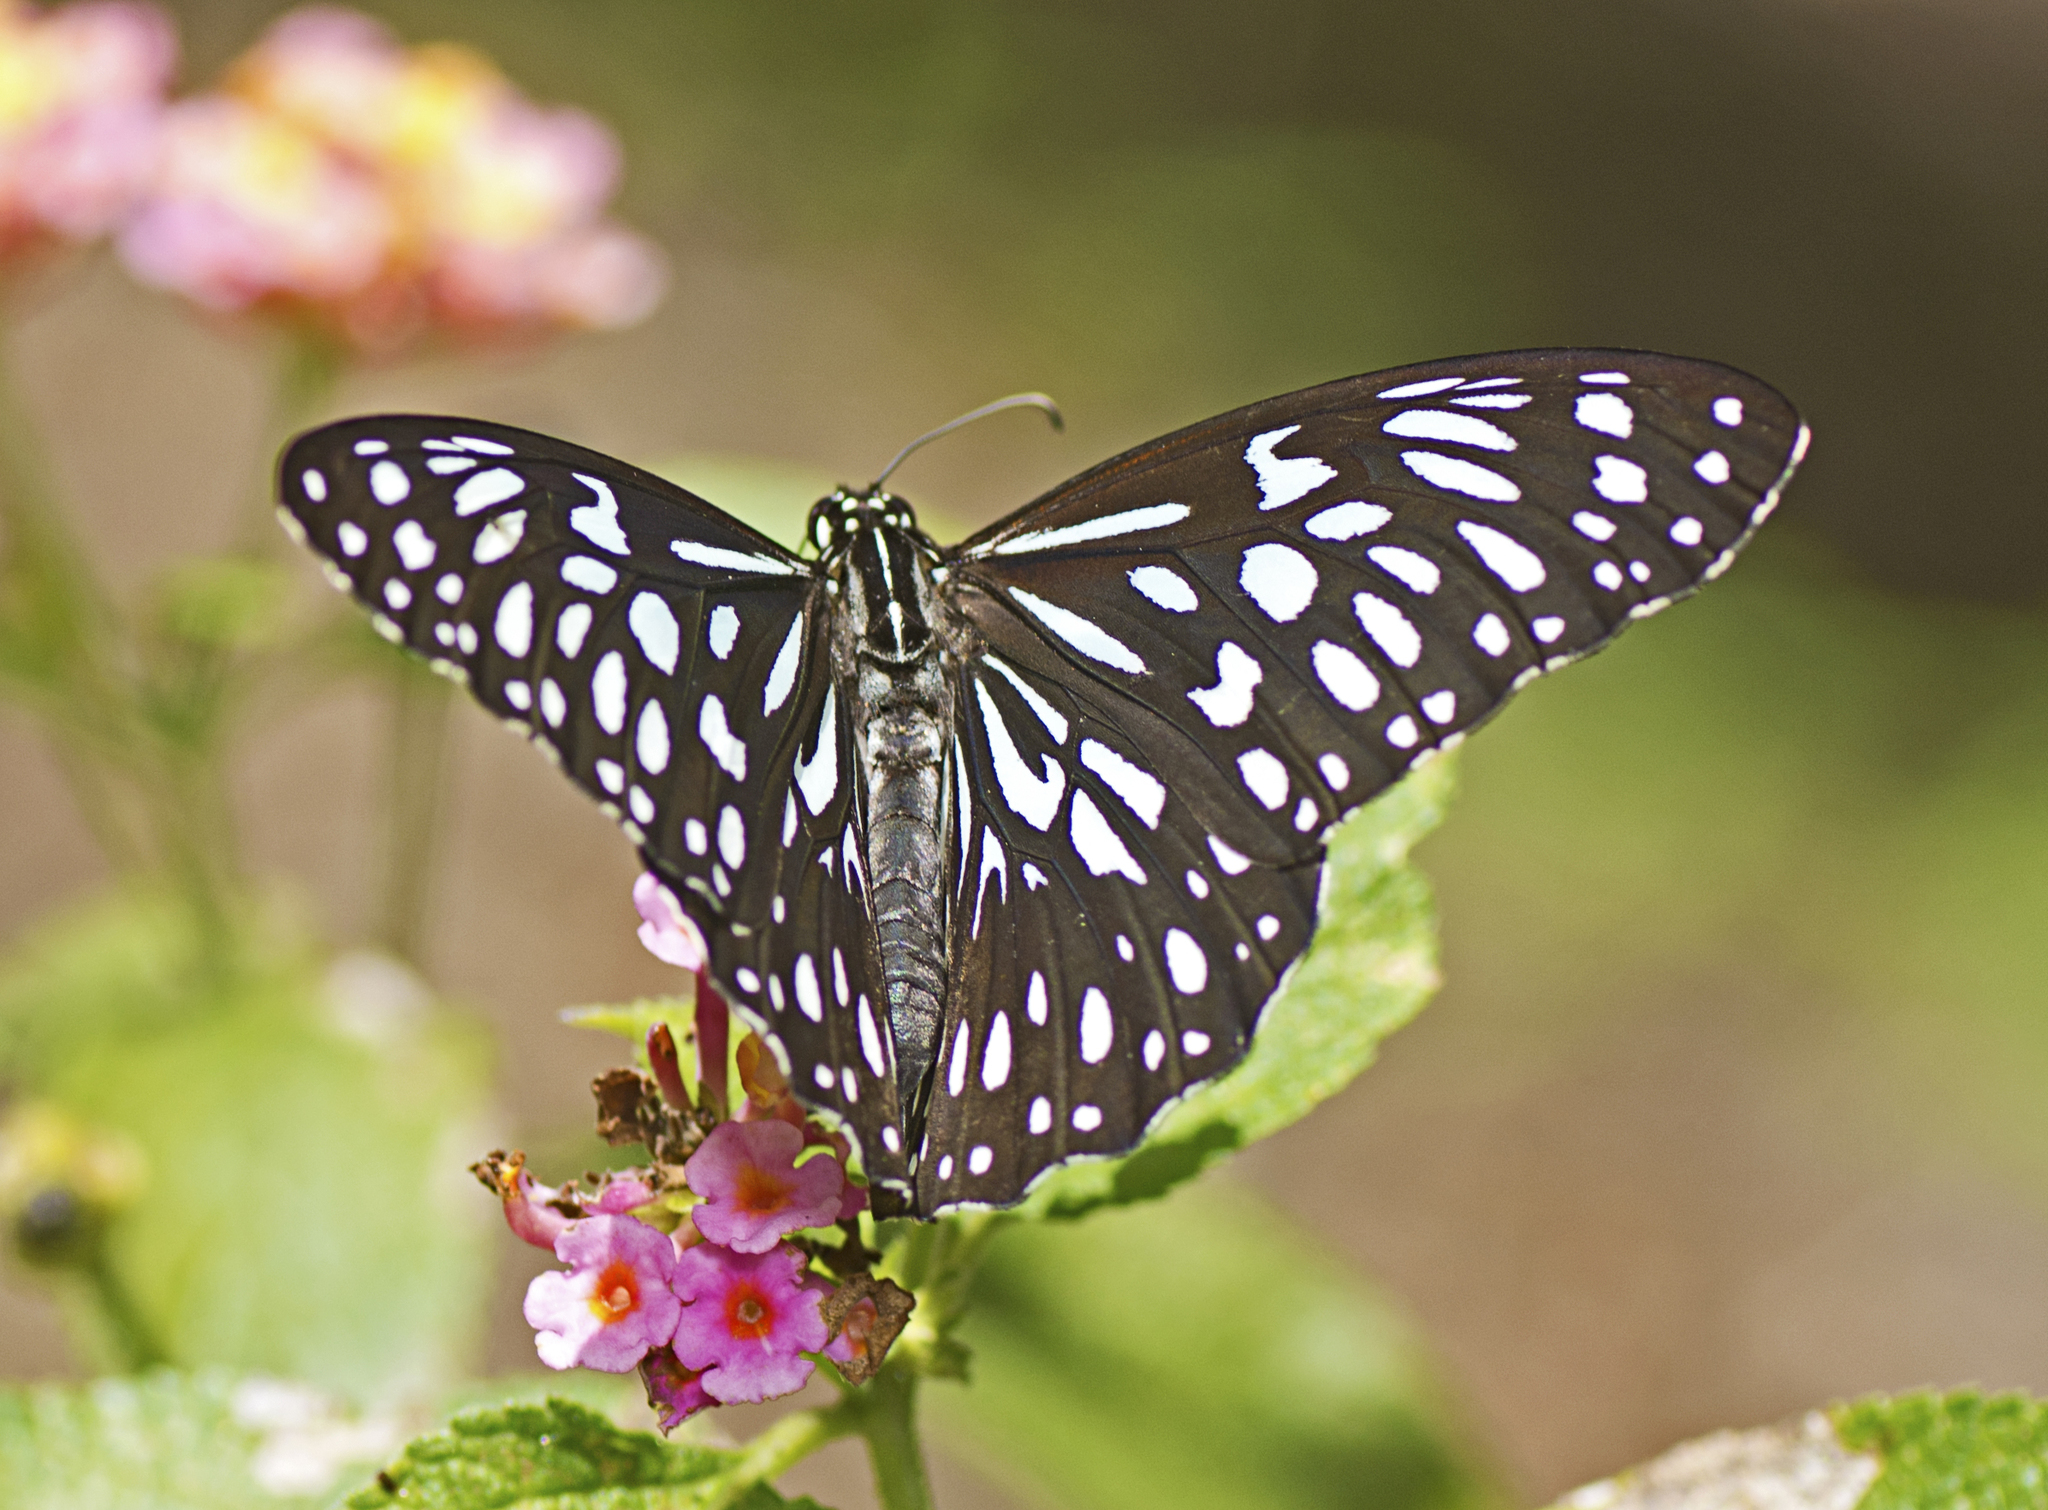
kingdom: Animalia
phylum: Arthropoda
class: Insecta
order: Lepidoptera
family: Nymphalidae
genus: Tirumala
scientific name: Tirumala hamata
